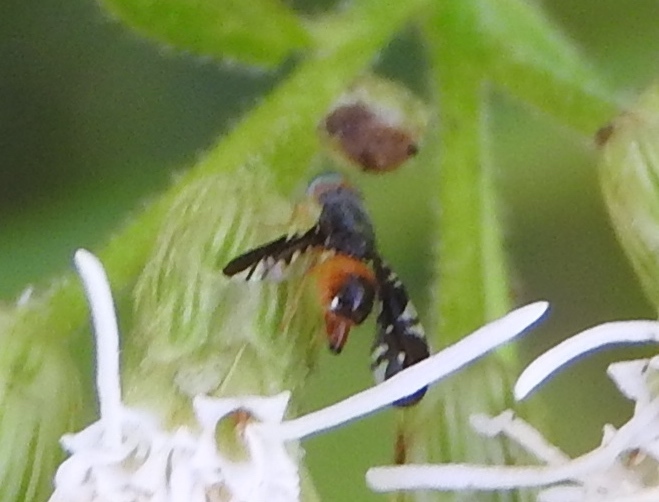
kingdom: Animalia
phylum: Arthropoda
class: Insecta
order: Diptera
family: Tephritidae
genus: Xanthaciura
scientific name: Xanthaciura
